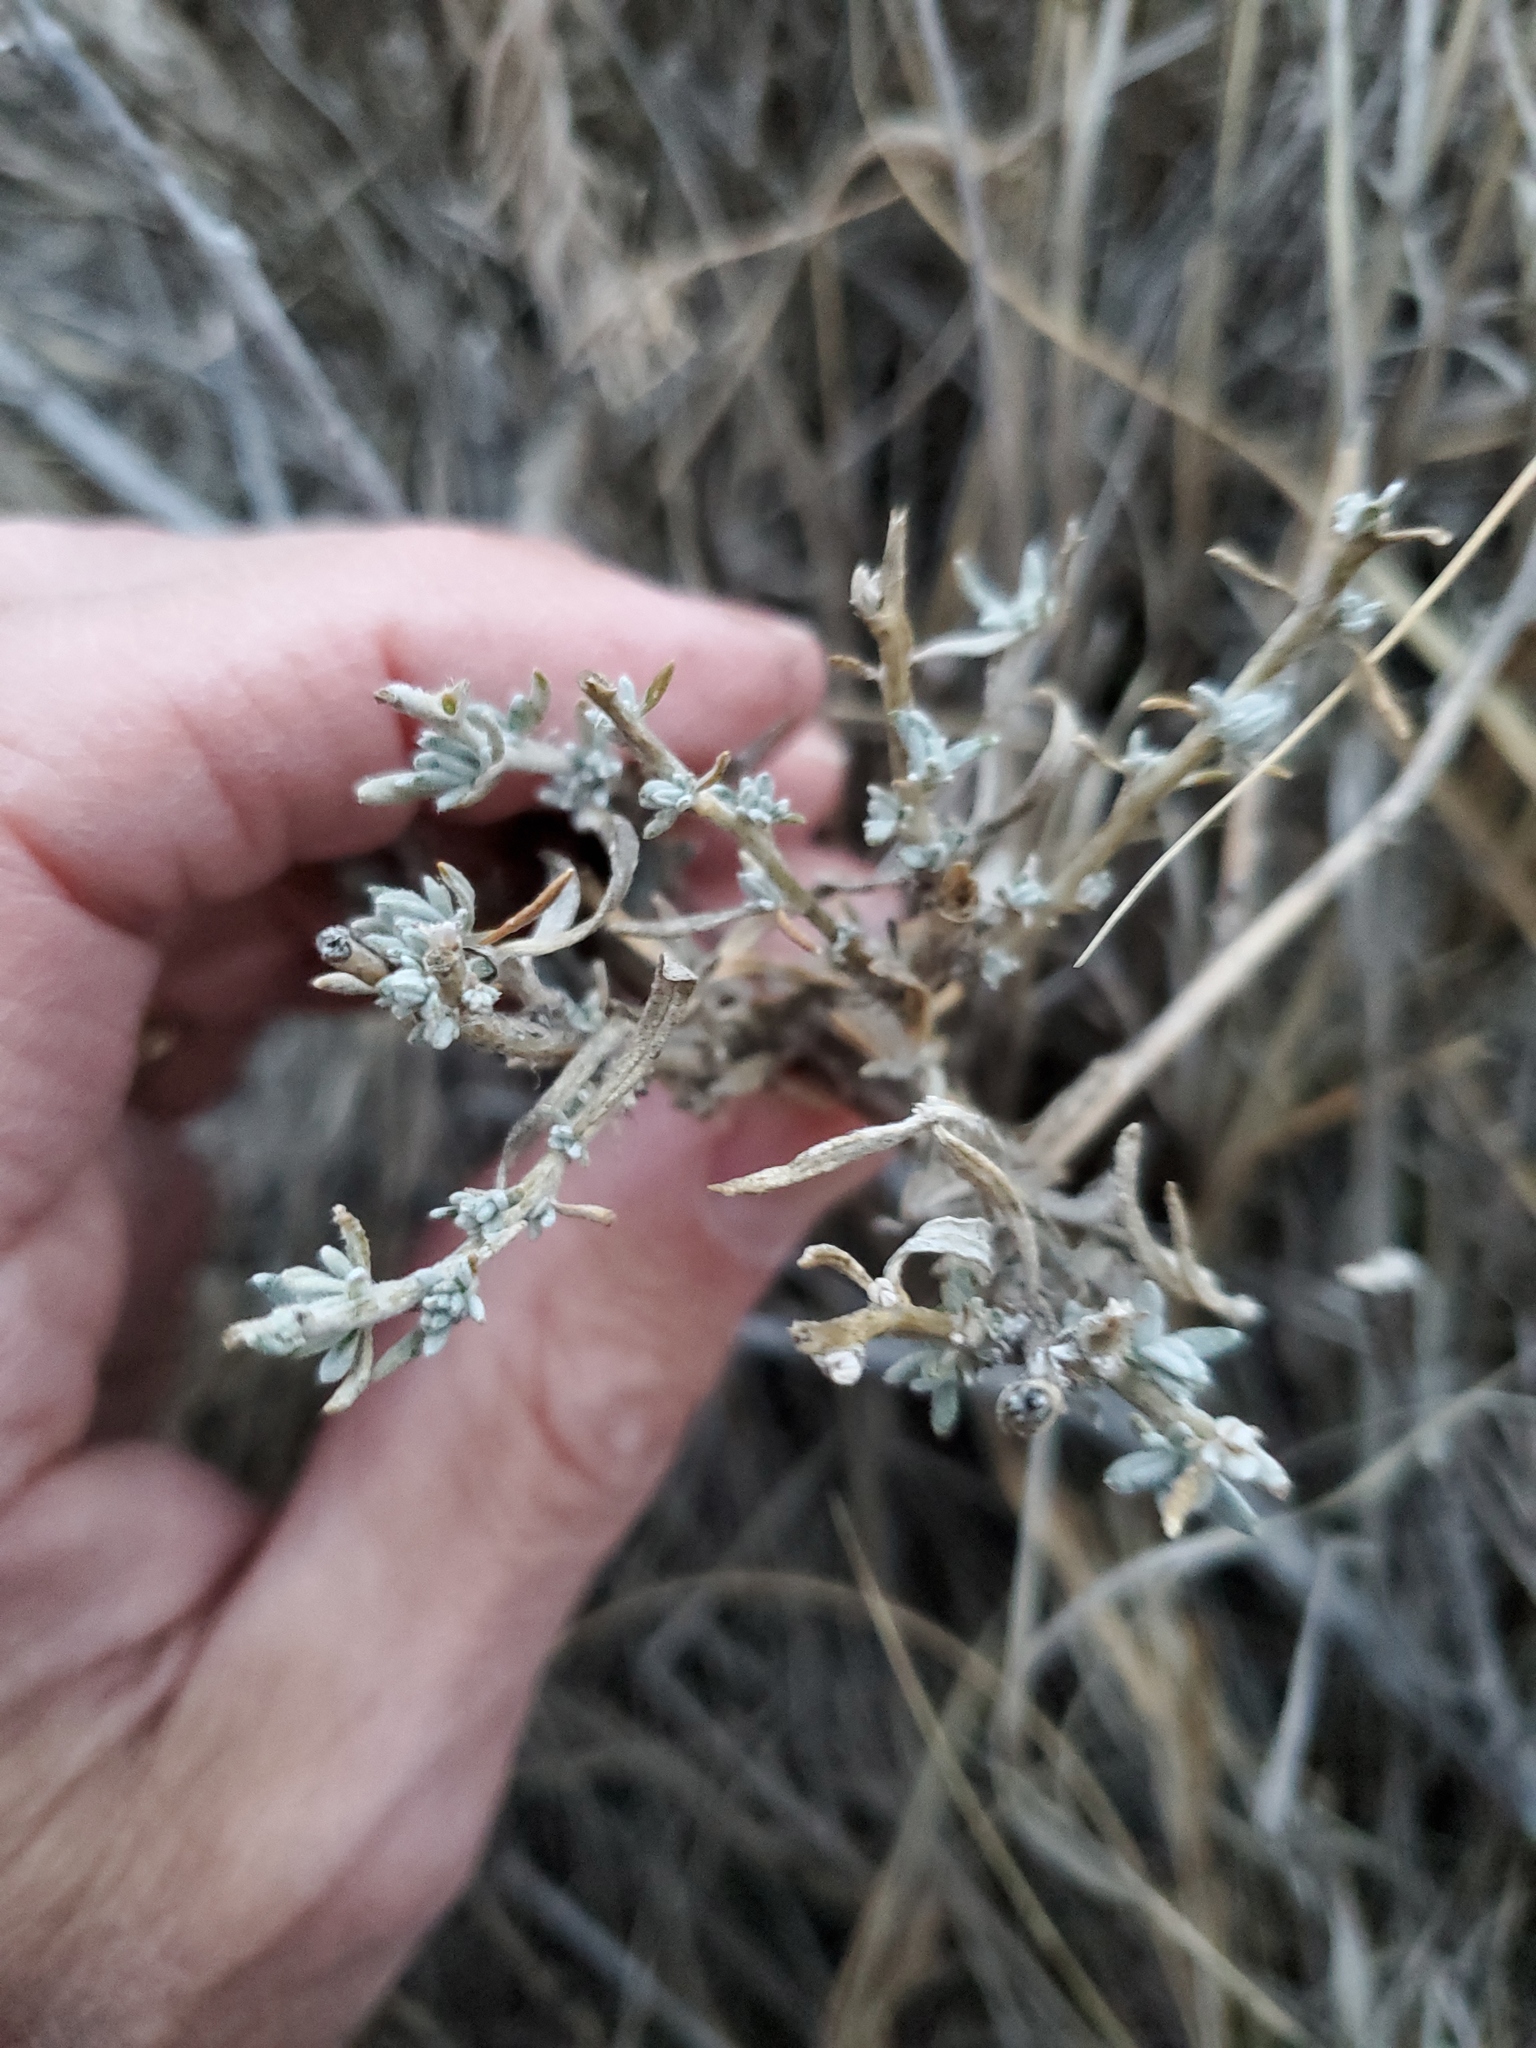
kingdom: Plantae
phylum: Tracheophyta
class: Magnoliopsida
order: Asterales
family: Asteraceae
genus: Artemisia
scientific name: Artemisia cana
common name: Silver sagebrush
